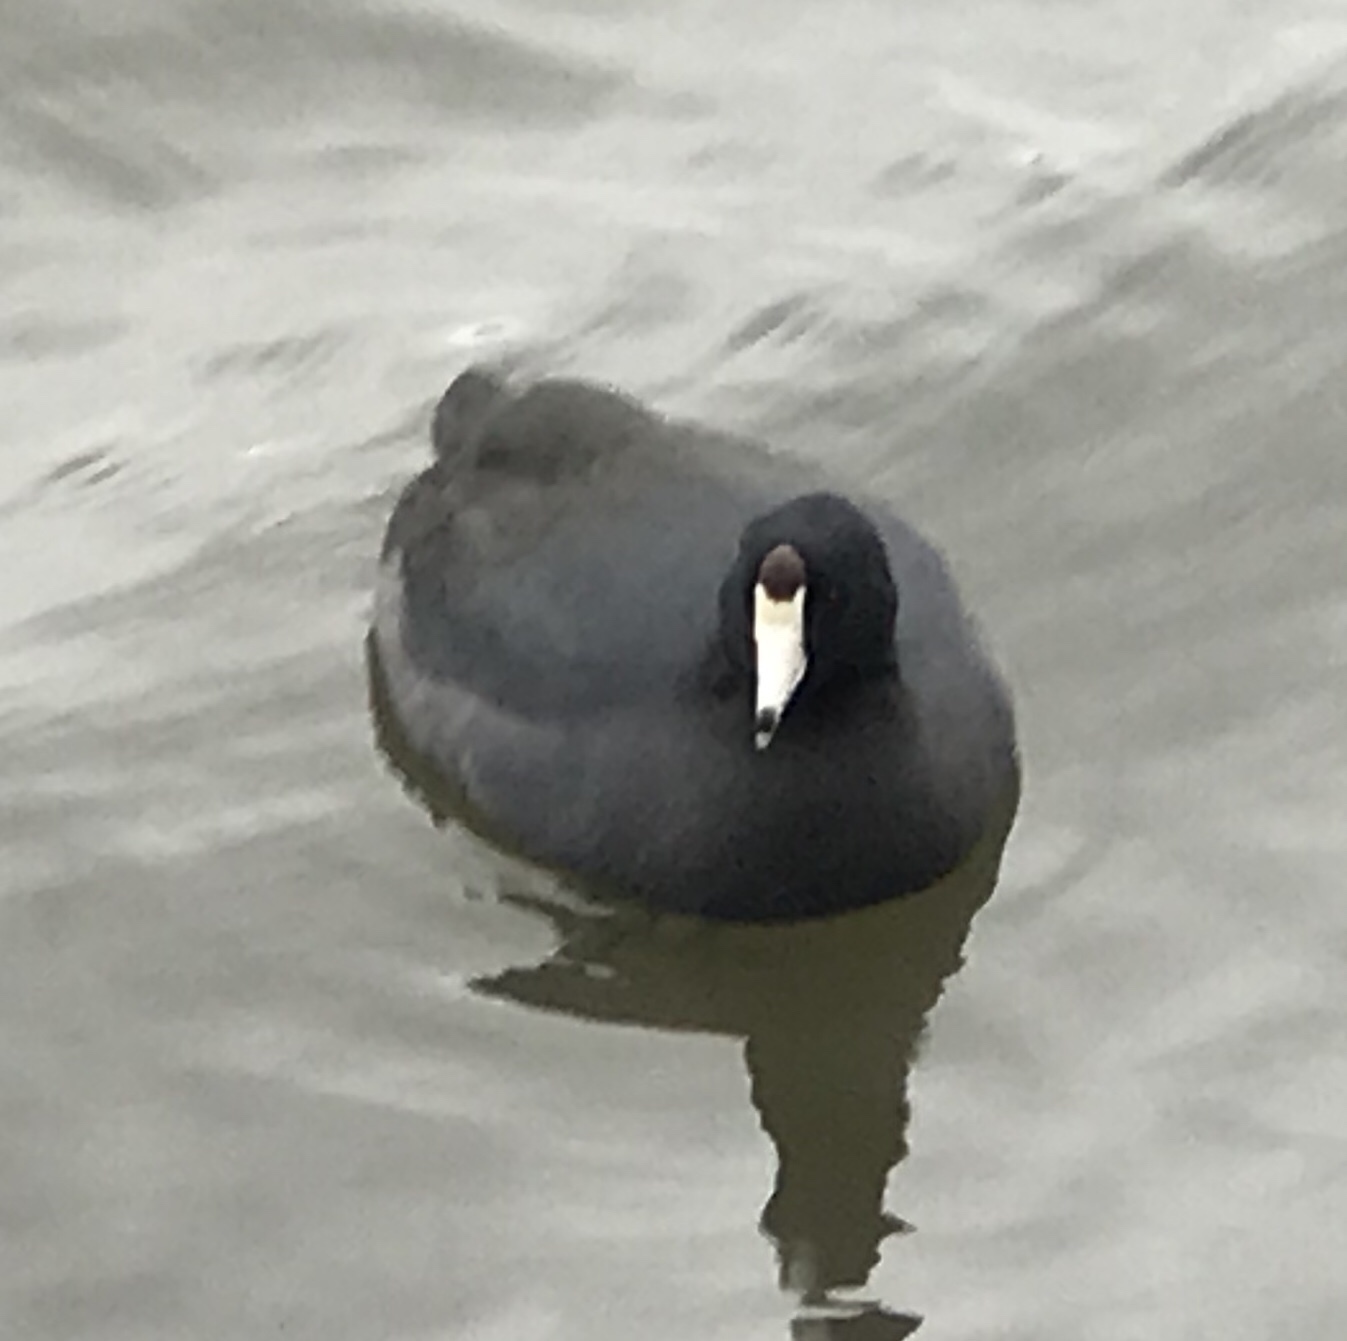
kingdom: Animalia
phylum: Chordata
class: Aves
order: Gruiformes
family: Rallidae
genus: Fulica
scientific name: Fulica americana
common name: American coot
